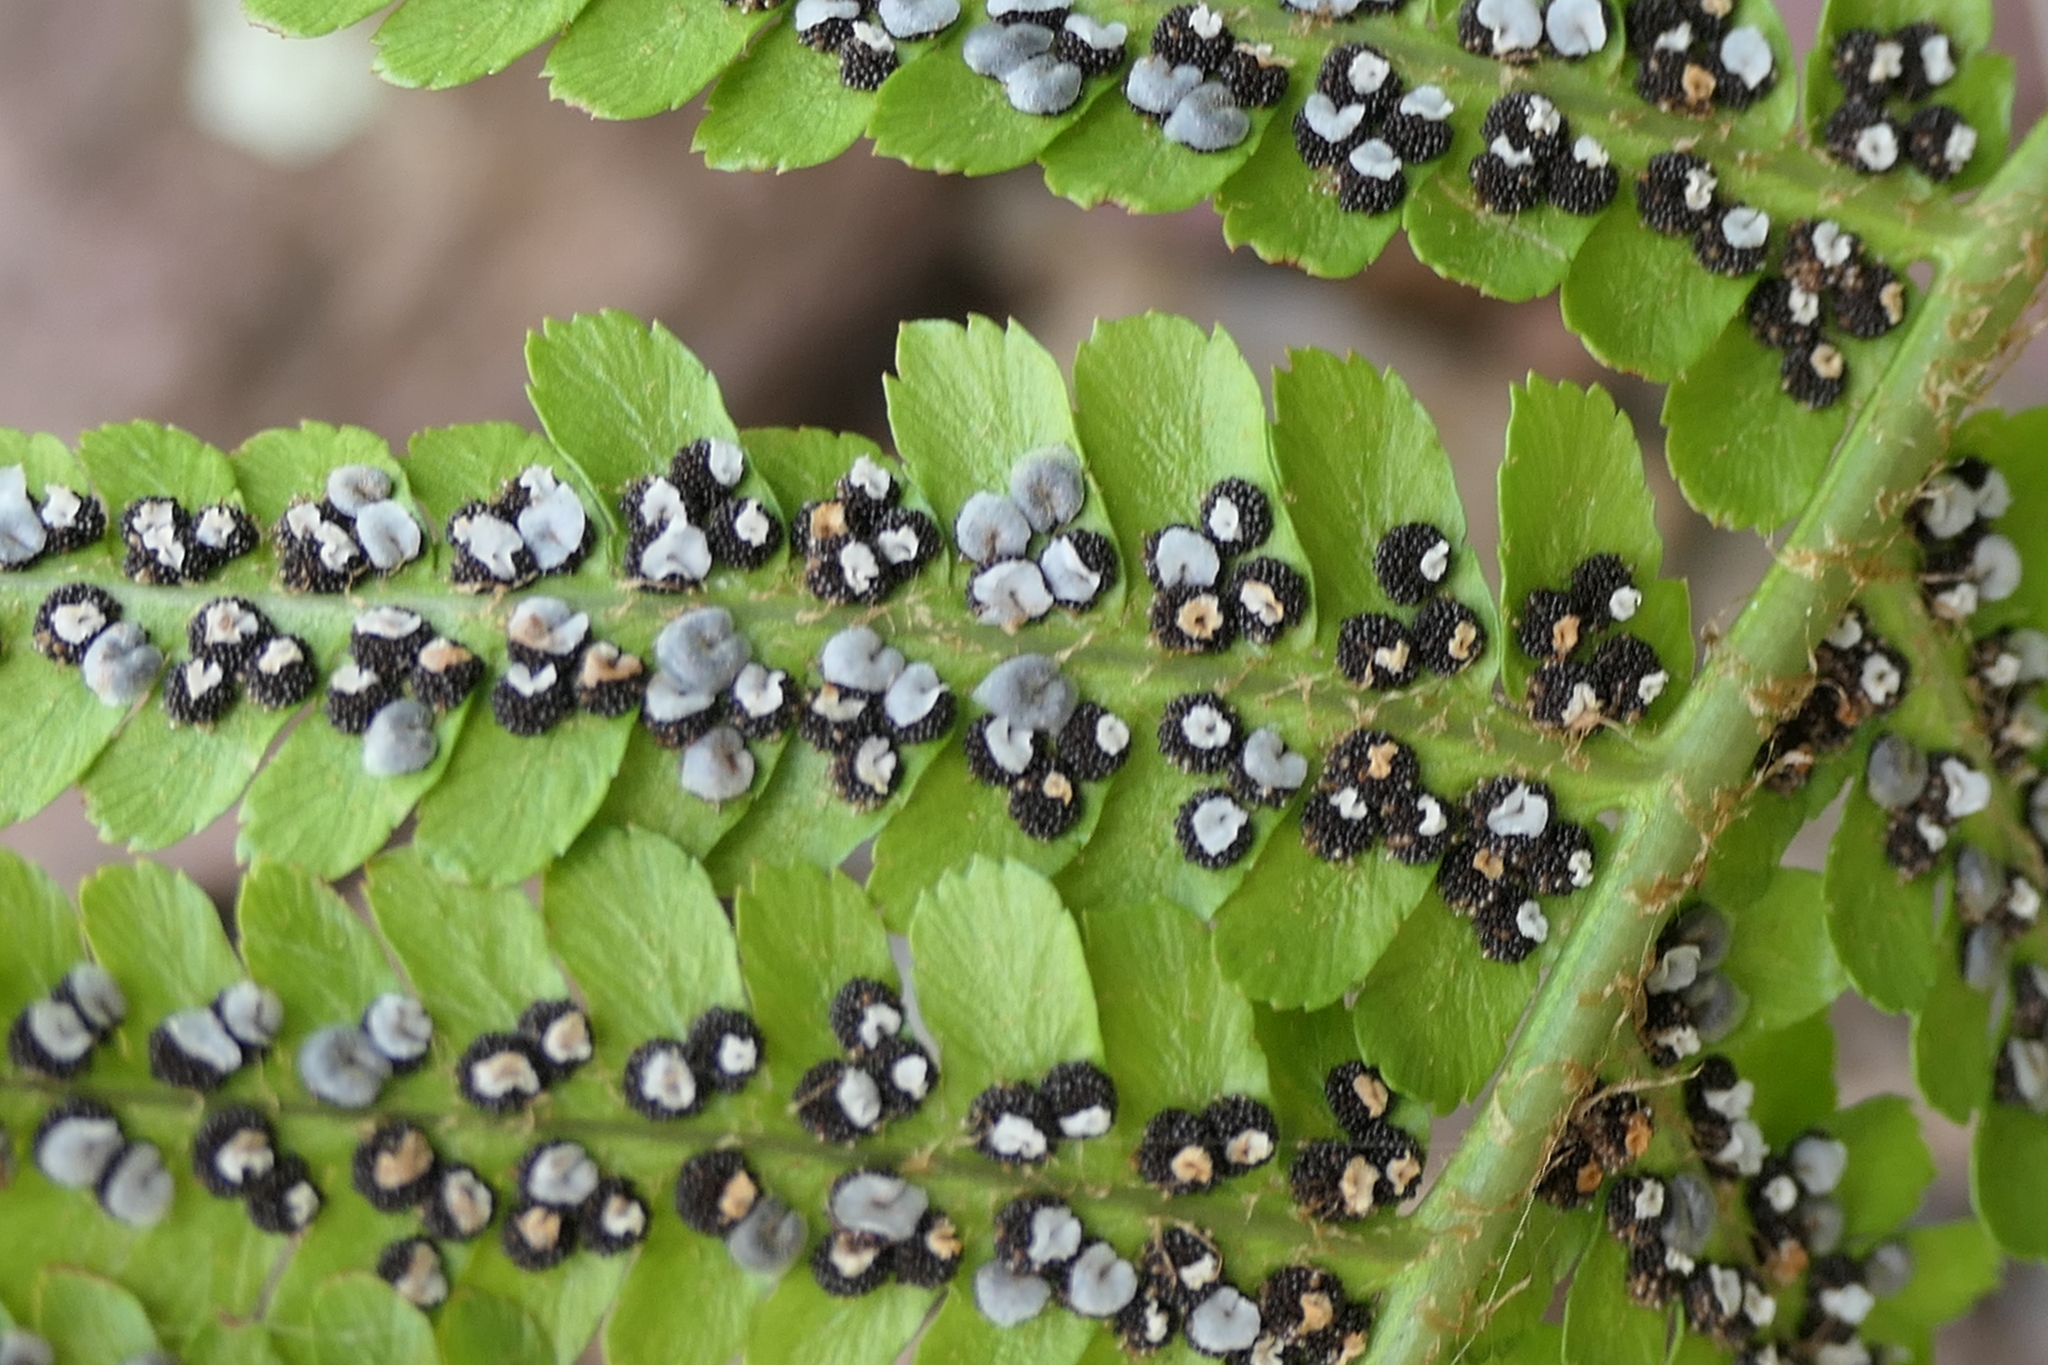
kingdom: Plantae
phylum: Tracheophyta
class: Polypodiopsida
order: Polypodiales
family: Dryopteridaceae
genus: Dryopteris
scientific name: Dryopteris filix-mas
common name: Male fern
